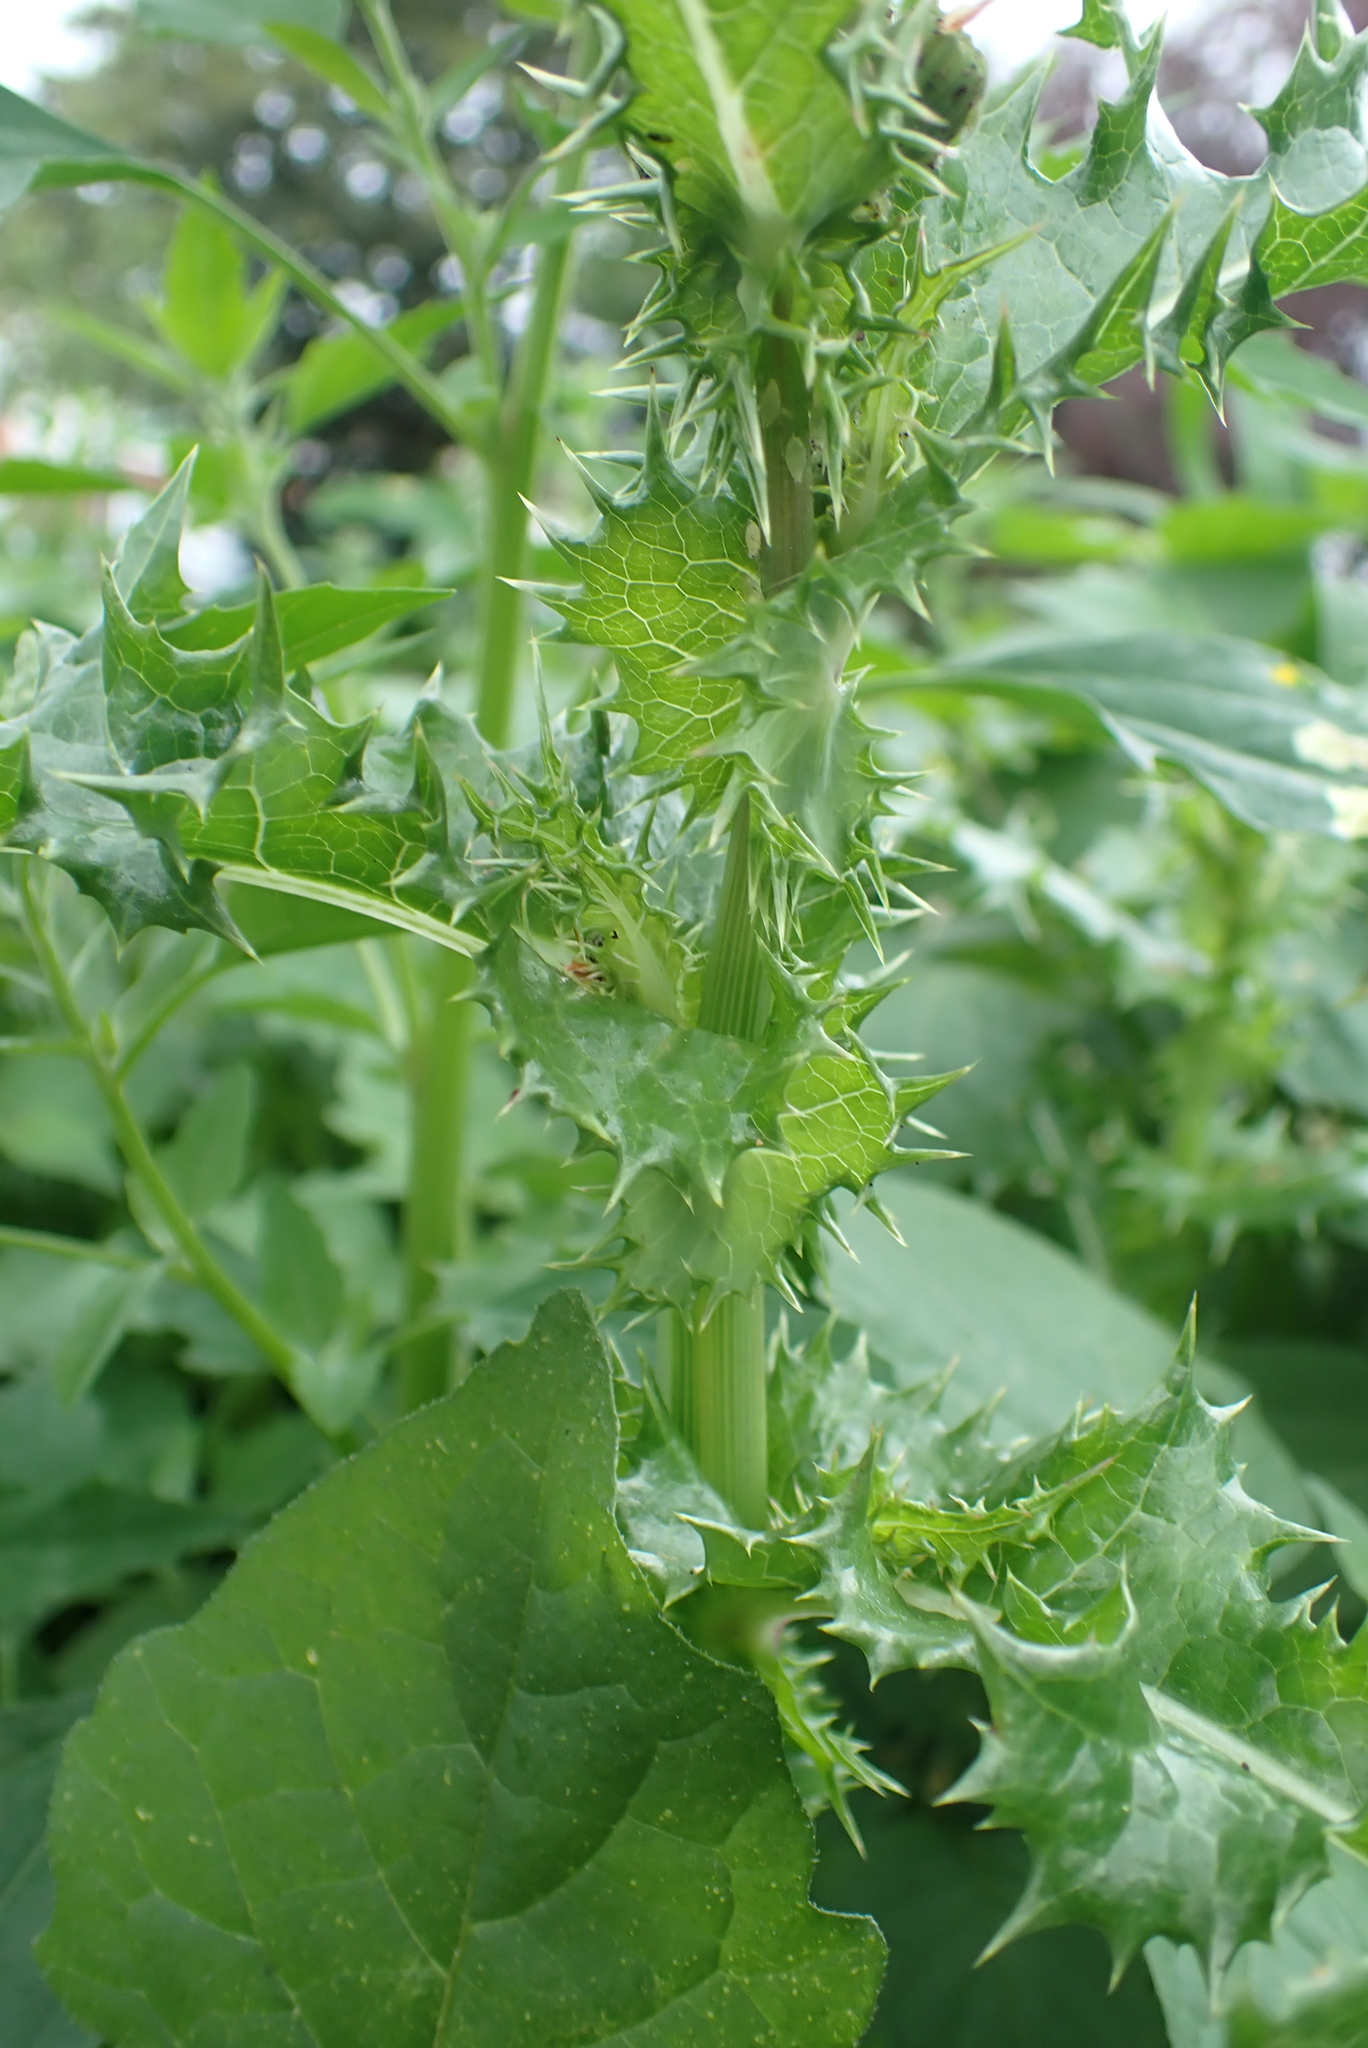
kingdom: Plantae
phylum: Tracheophyta
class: Magnoliopsida
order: Asterales
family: Asteraceae
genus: Sonchus
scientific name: Sonchus asper
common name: Prickly sow-thistle
